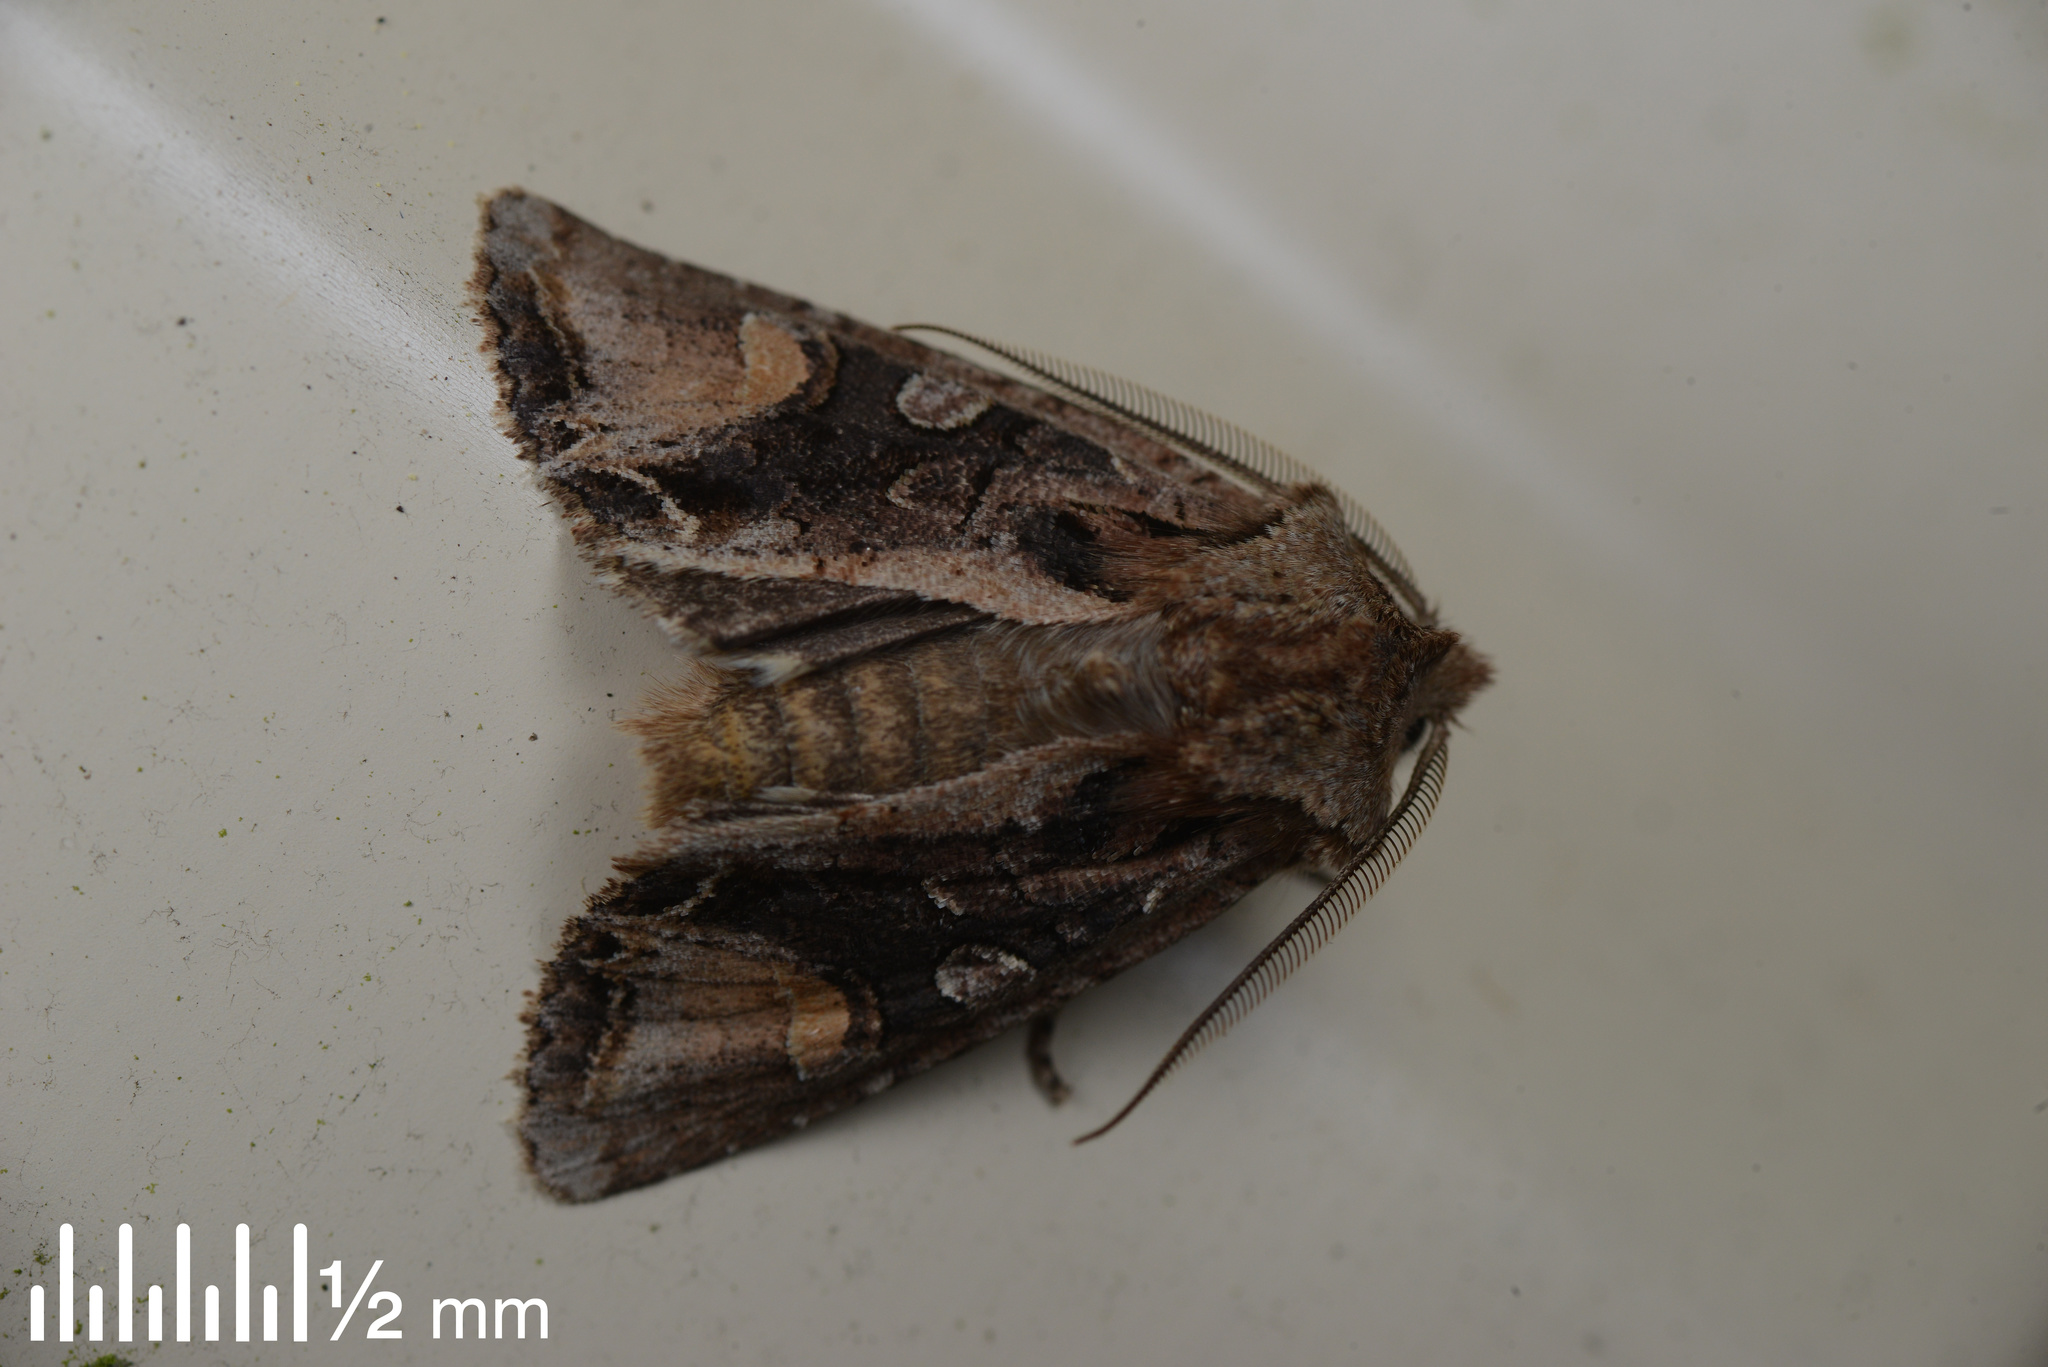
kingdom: Animalia
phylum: Arthropoda
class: Insecta
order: Lepidoptera
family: Noctuidae
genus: Ichneutica
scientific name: Ichneutica
